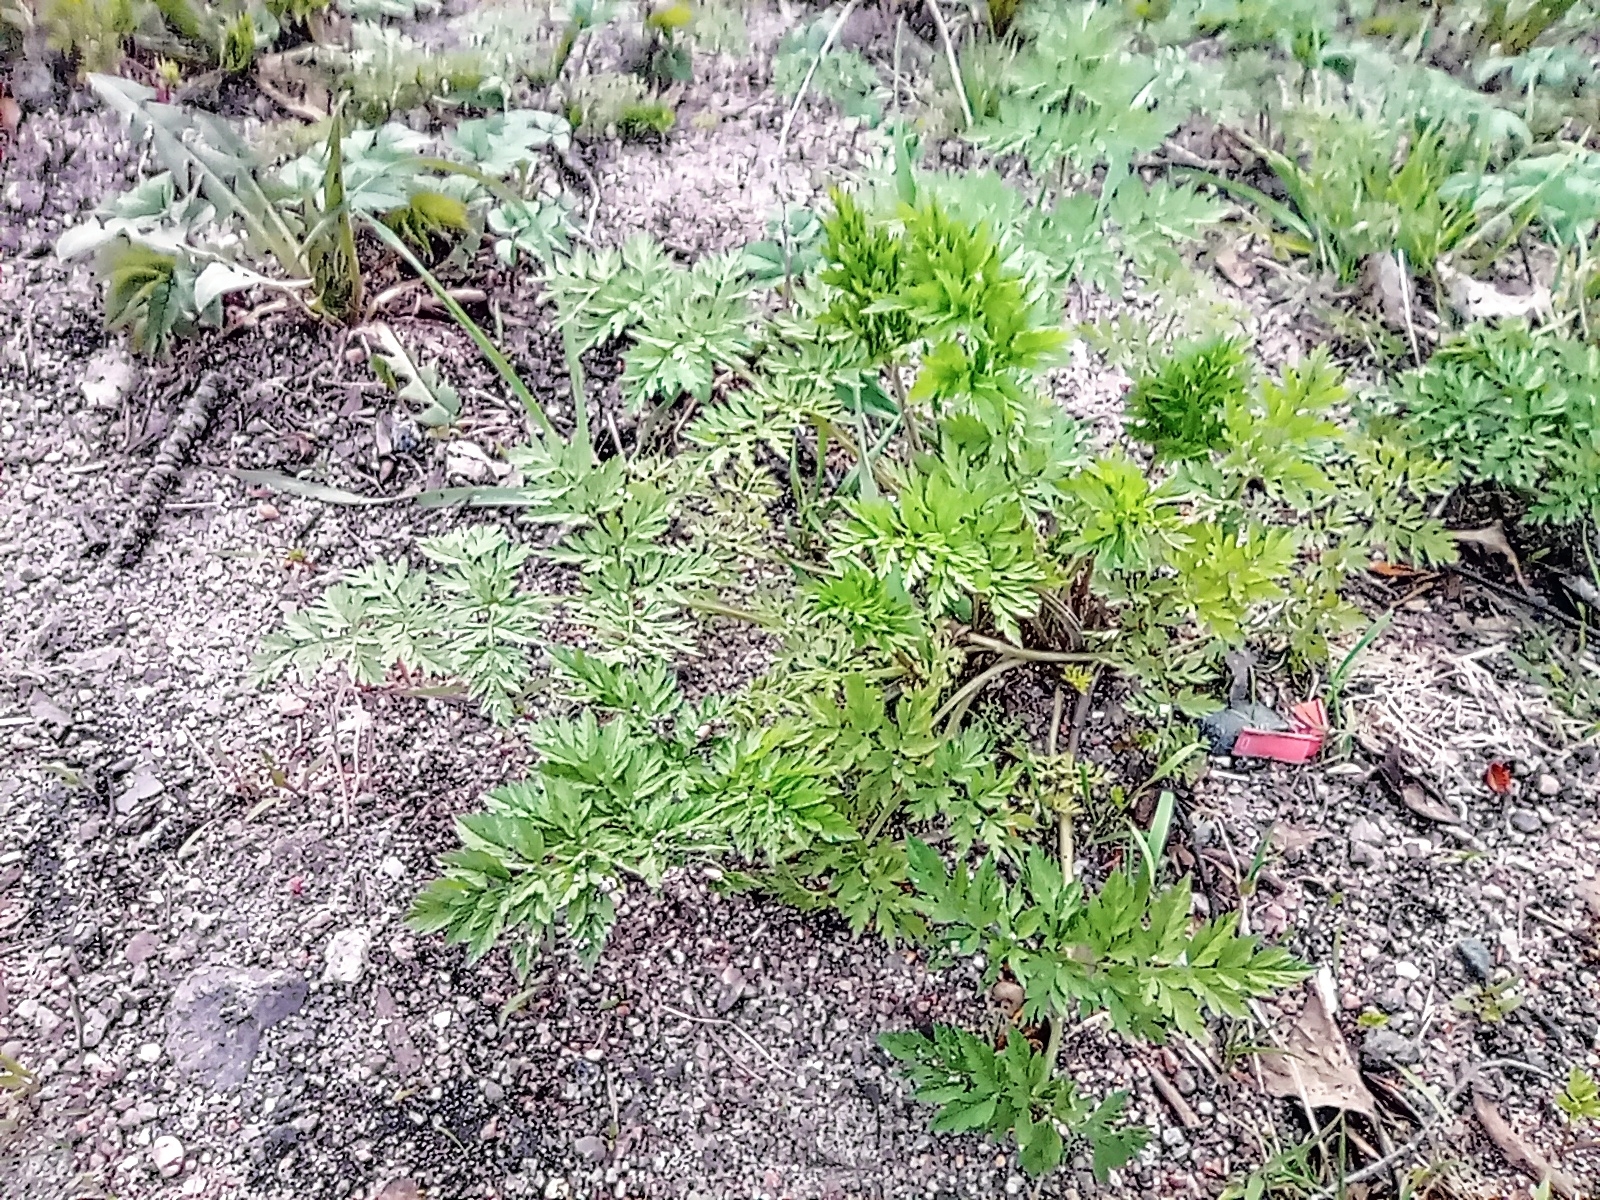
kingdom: Plantae
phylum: Tracheophyta
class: Magnoliopsida
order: Apiales
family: Apiaceae
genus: Anthriscus
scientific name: Anthriscus sylvestris
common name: Cow parsley
